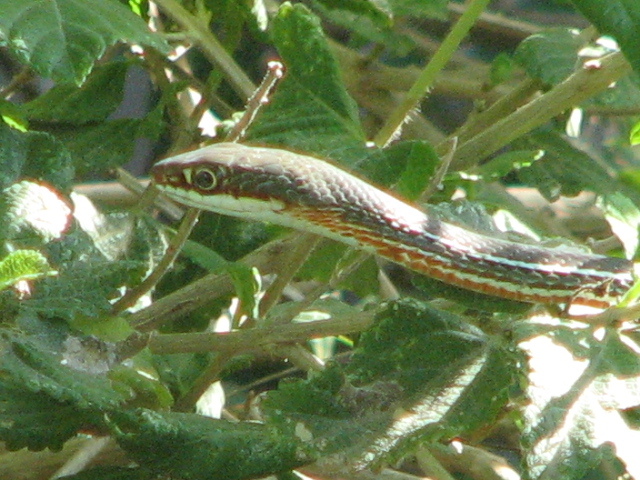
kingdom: Animalia
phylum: Chordata
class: Squamata
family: Colubridae
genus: Masticophis
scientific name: Masticophis schotti
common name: Schott's whipsnake
